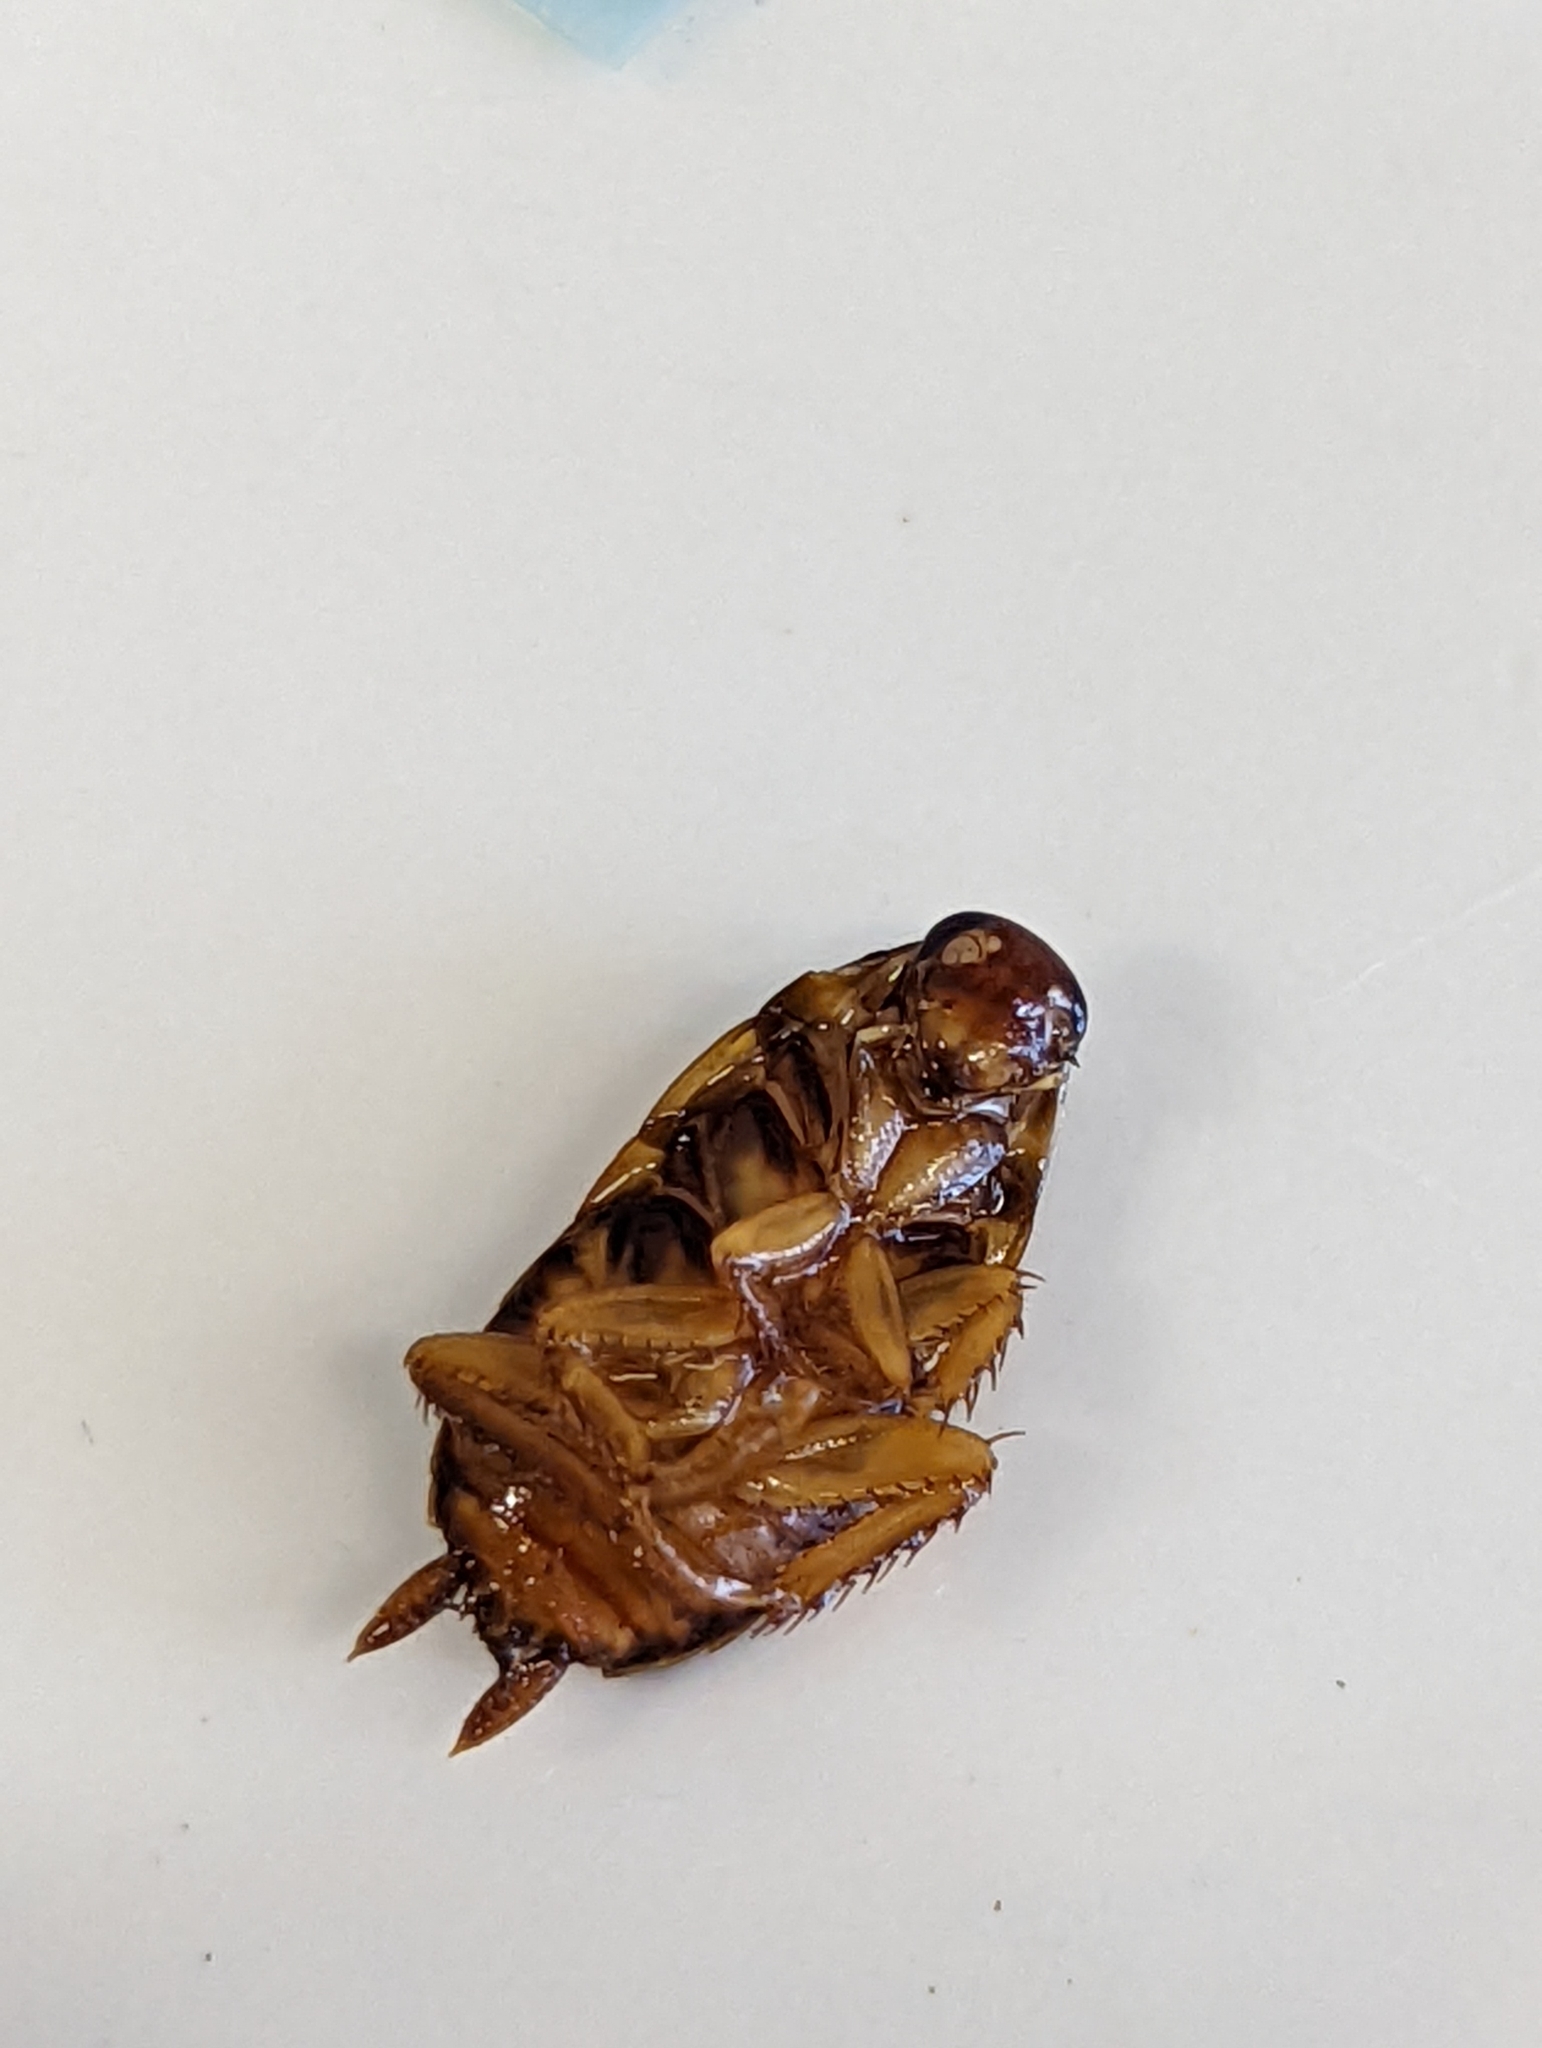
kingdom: Animalia
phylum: Arthropoda
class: Insecta
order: Blattodea
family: Blattidae
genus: Periplaneta
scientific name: Periplaneta australasiae
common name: Australian cockroach
